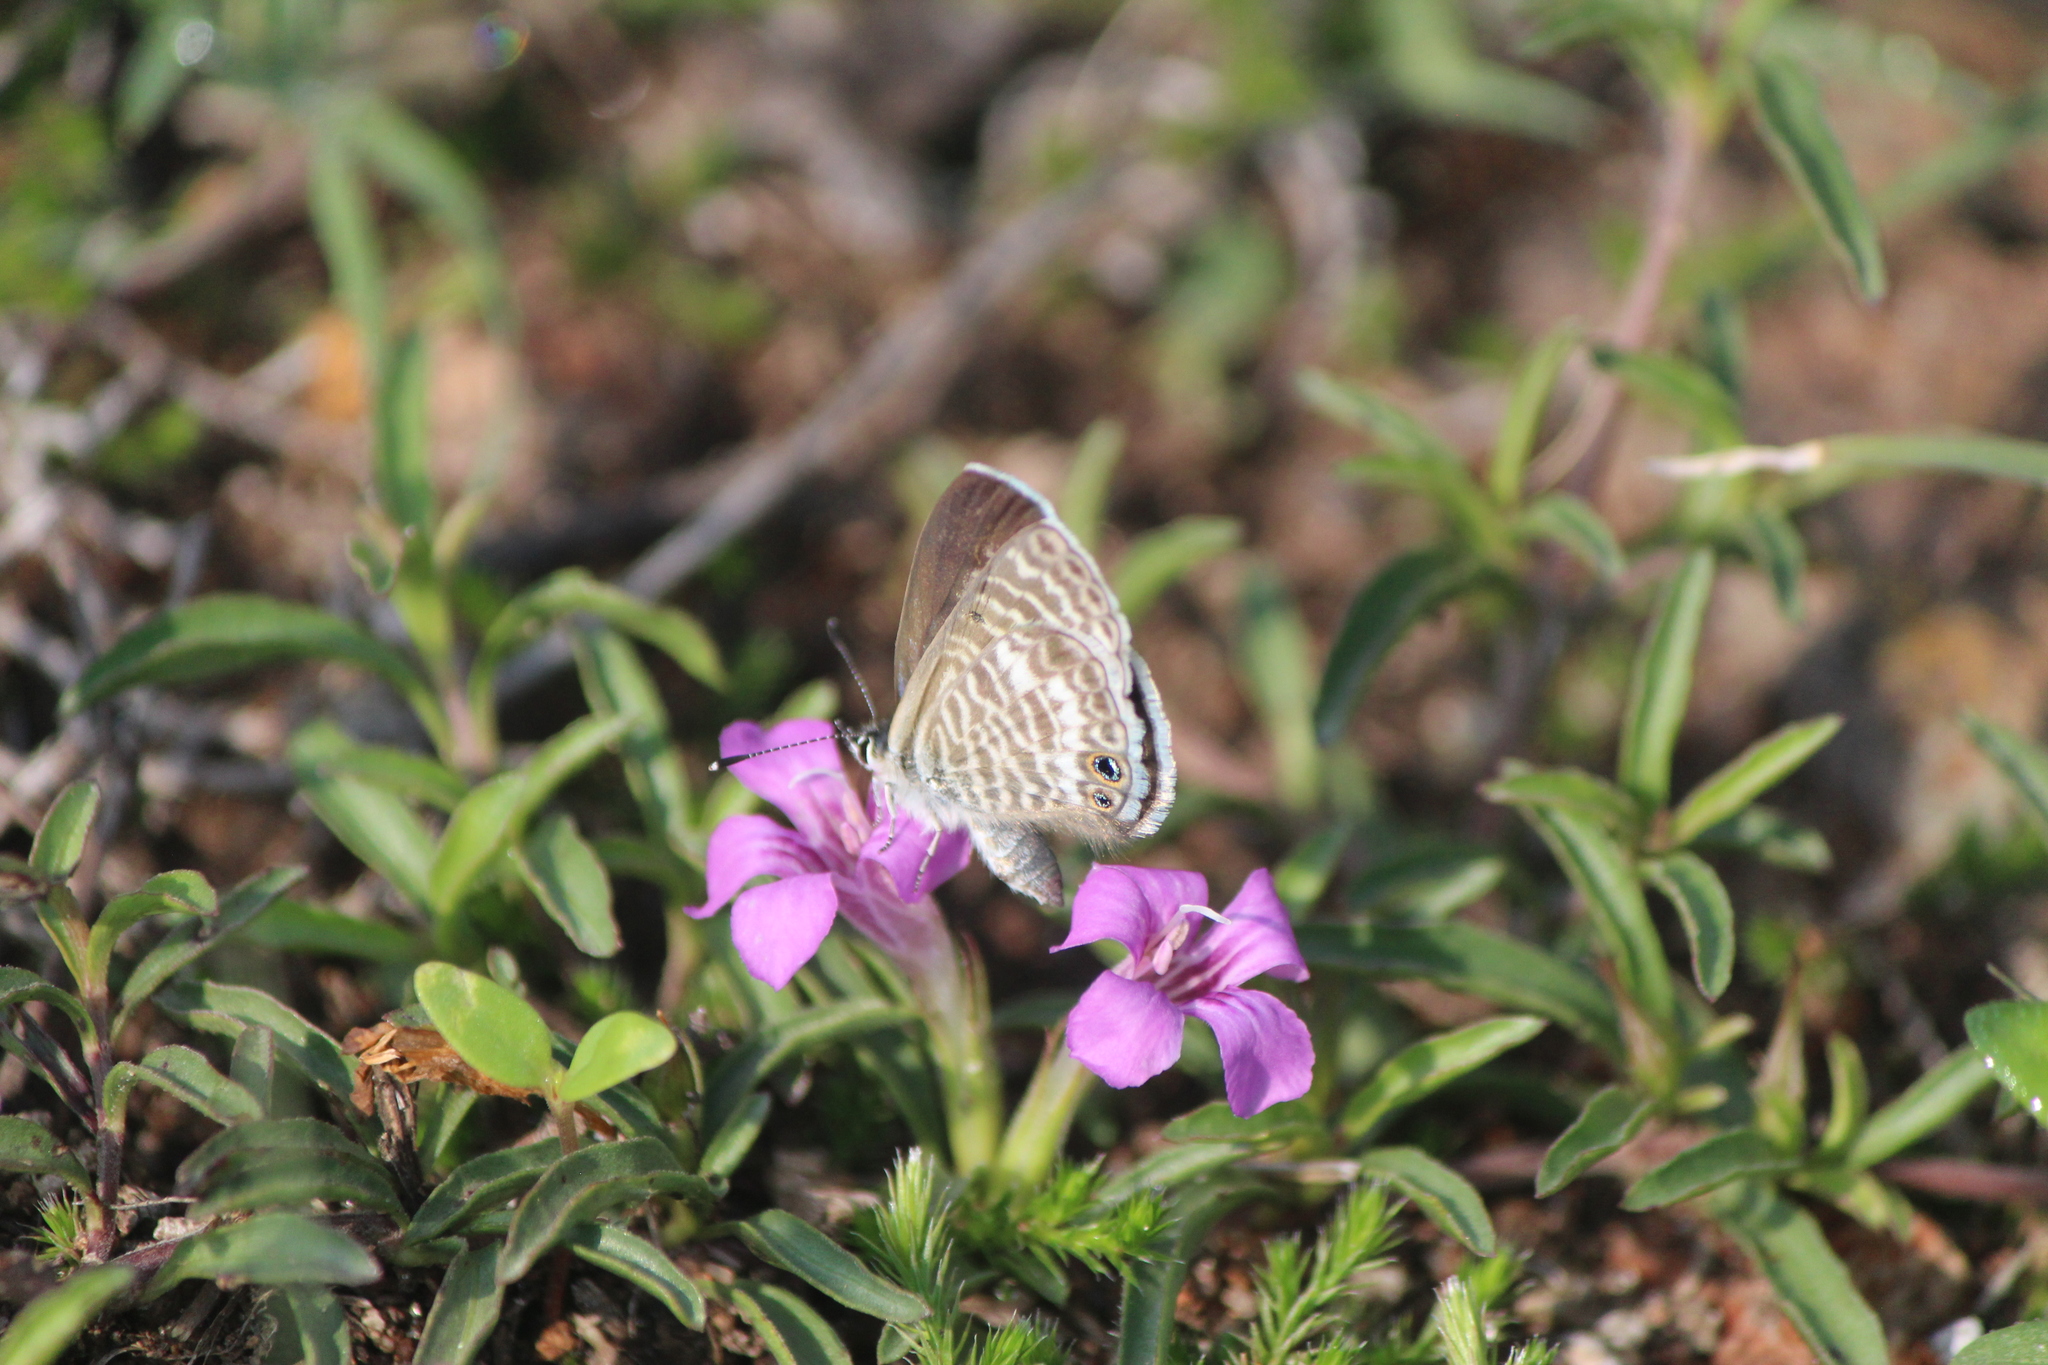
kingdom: Animalia
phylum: Arthropoda
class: Insecta
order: Lepidoptera
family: Lycaenidae
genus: Leptotes
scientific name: Leptotes marina
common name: Marine blue
